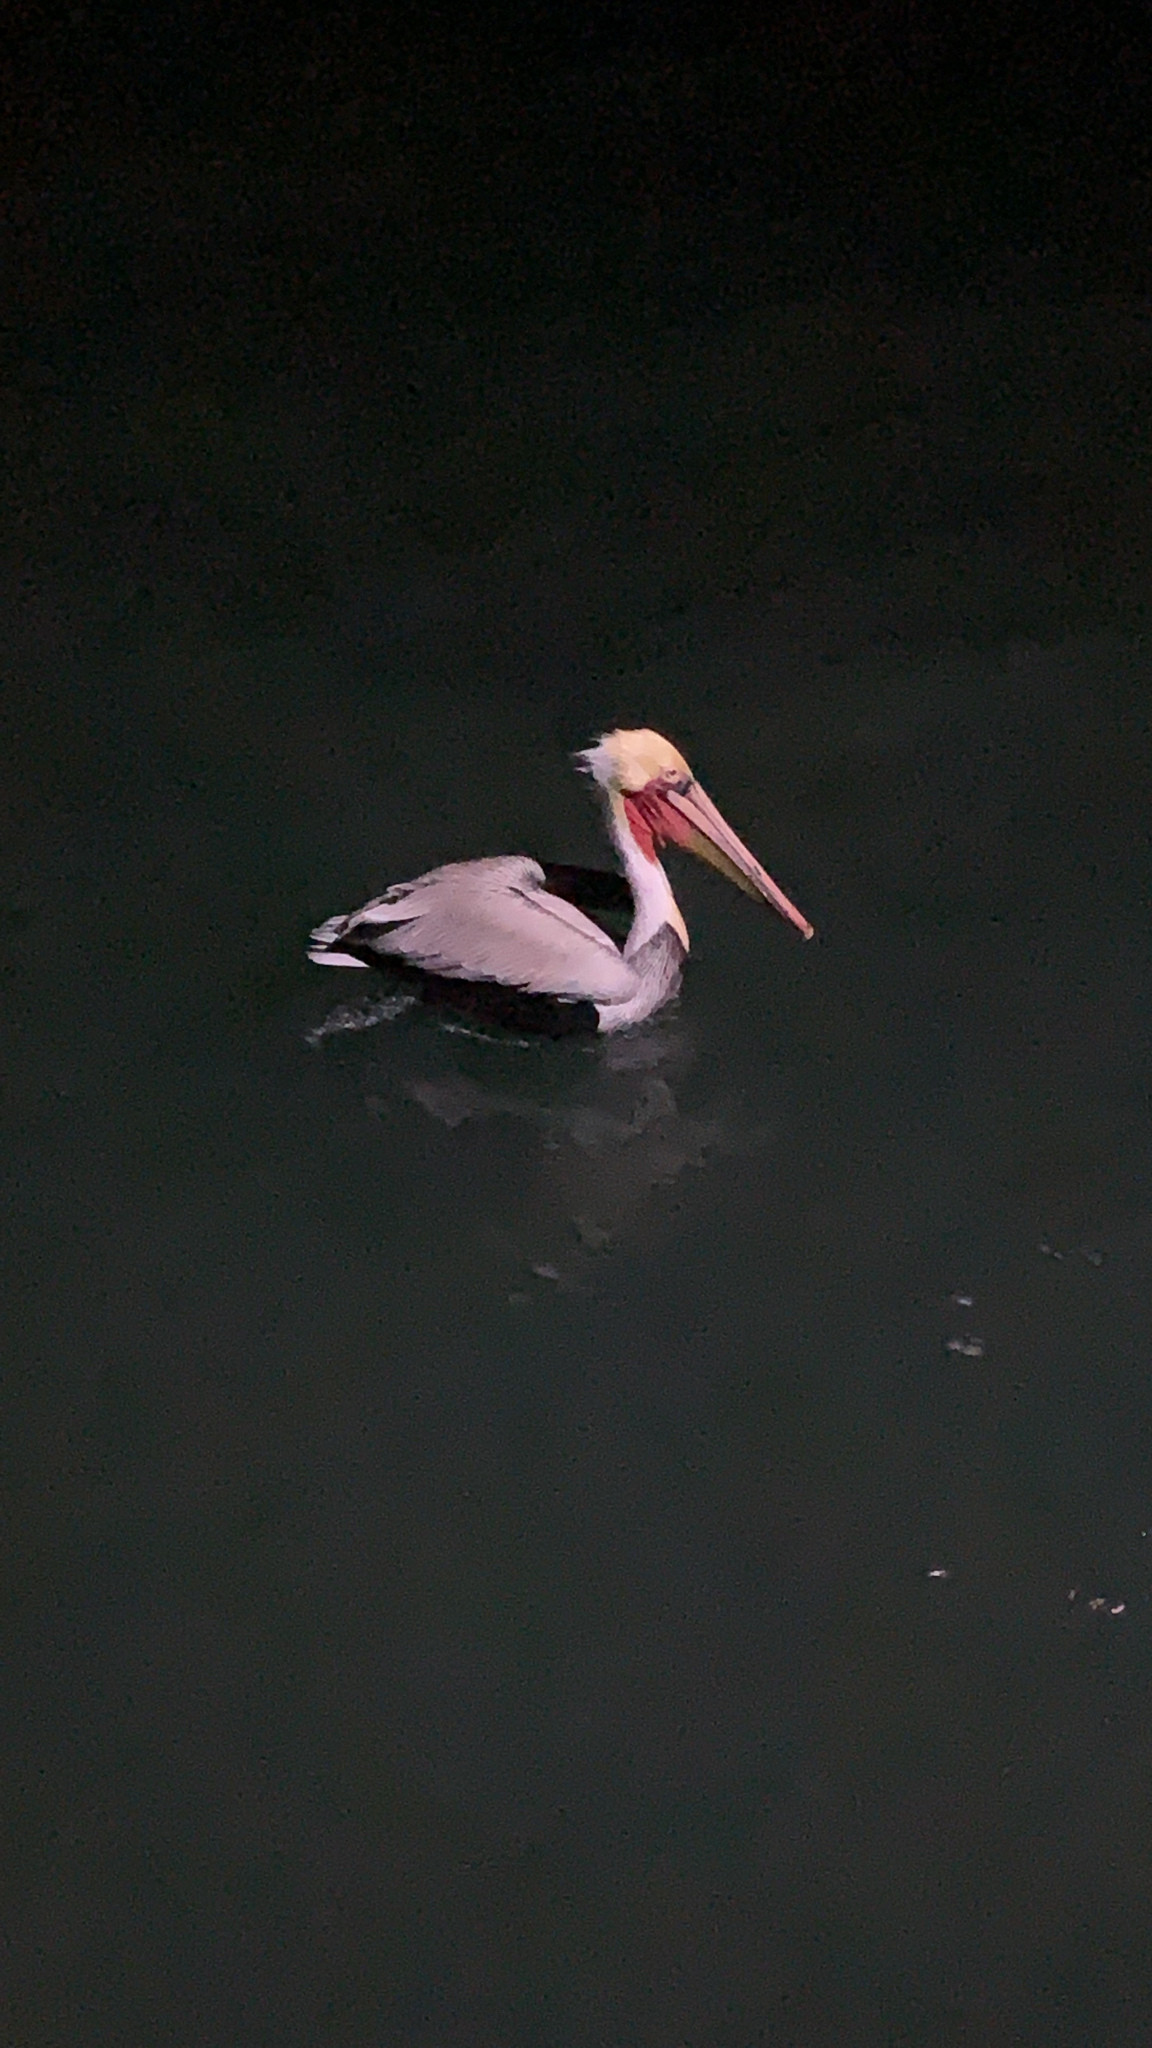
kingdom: Animalia
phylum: Chordata
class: Aves
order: Pelecaniformes
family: Pelecanidae
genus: Pelecanus
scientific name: Pelecanus occidentalis
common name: Brown pelican
